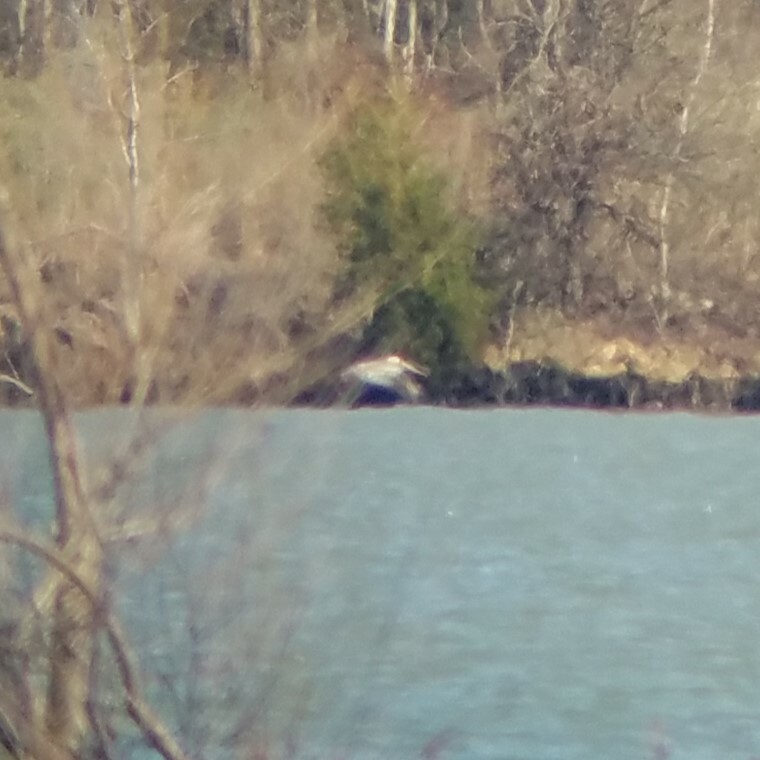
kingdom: Animalia
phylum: Chordata
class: Aves
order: Pelecaniformes
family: Pelecanidae
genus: Pelecanus
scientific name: Pelecanus occidentalis
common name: Brown pelican
